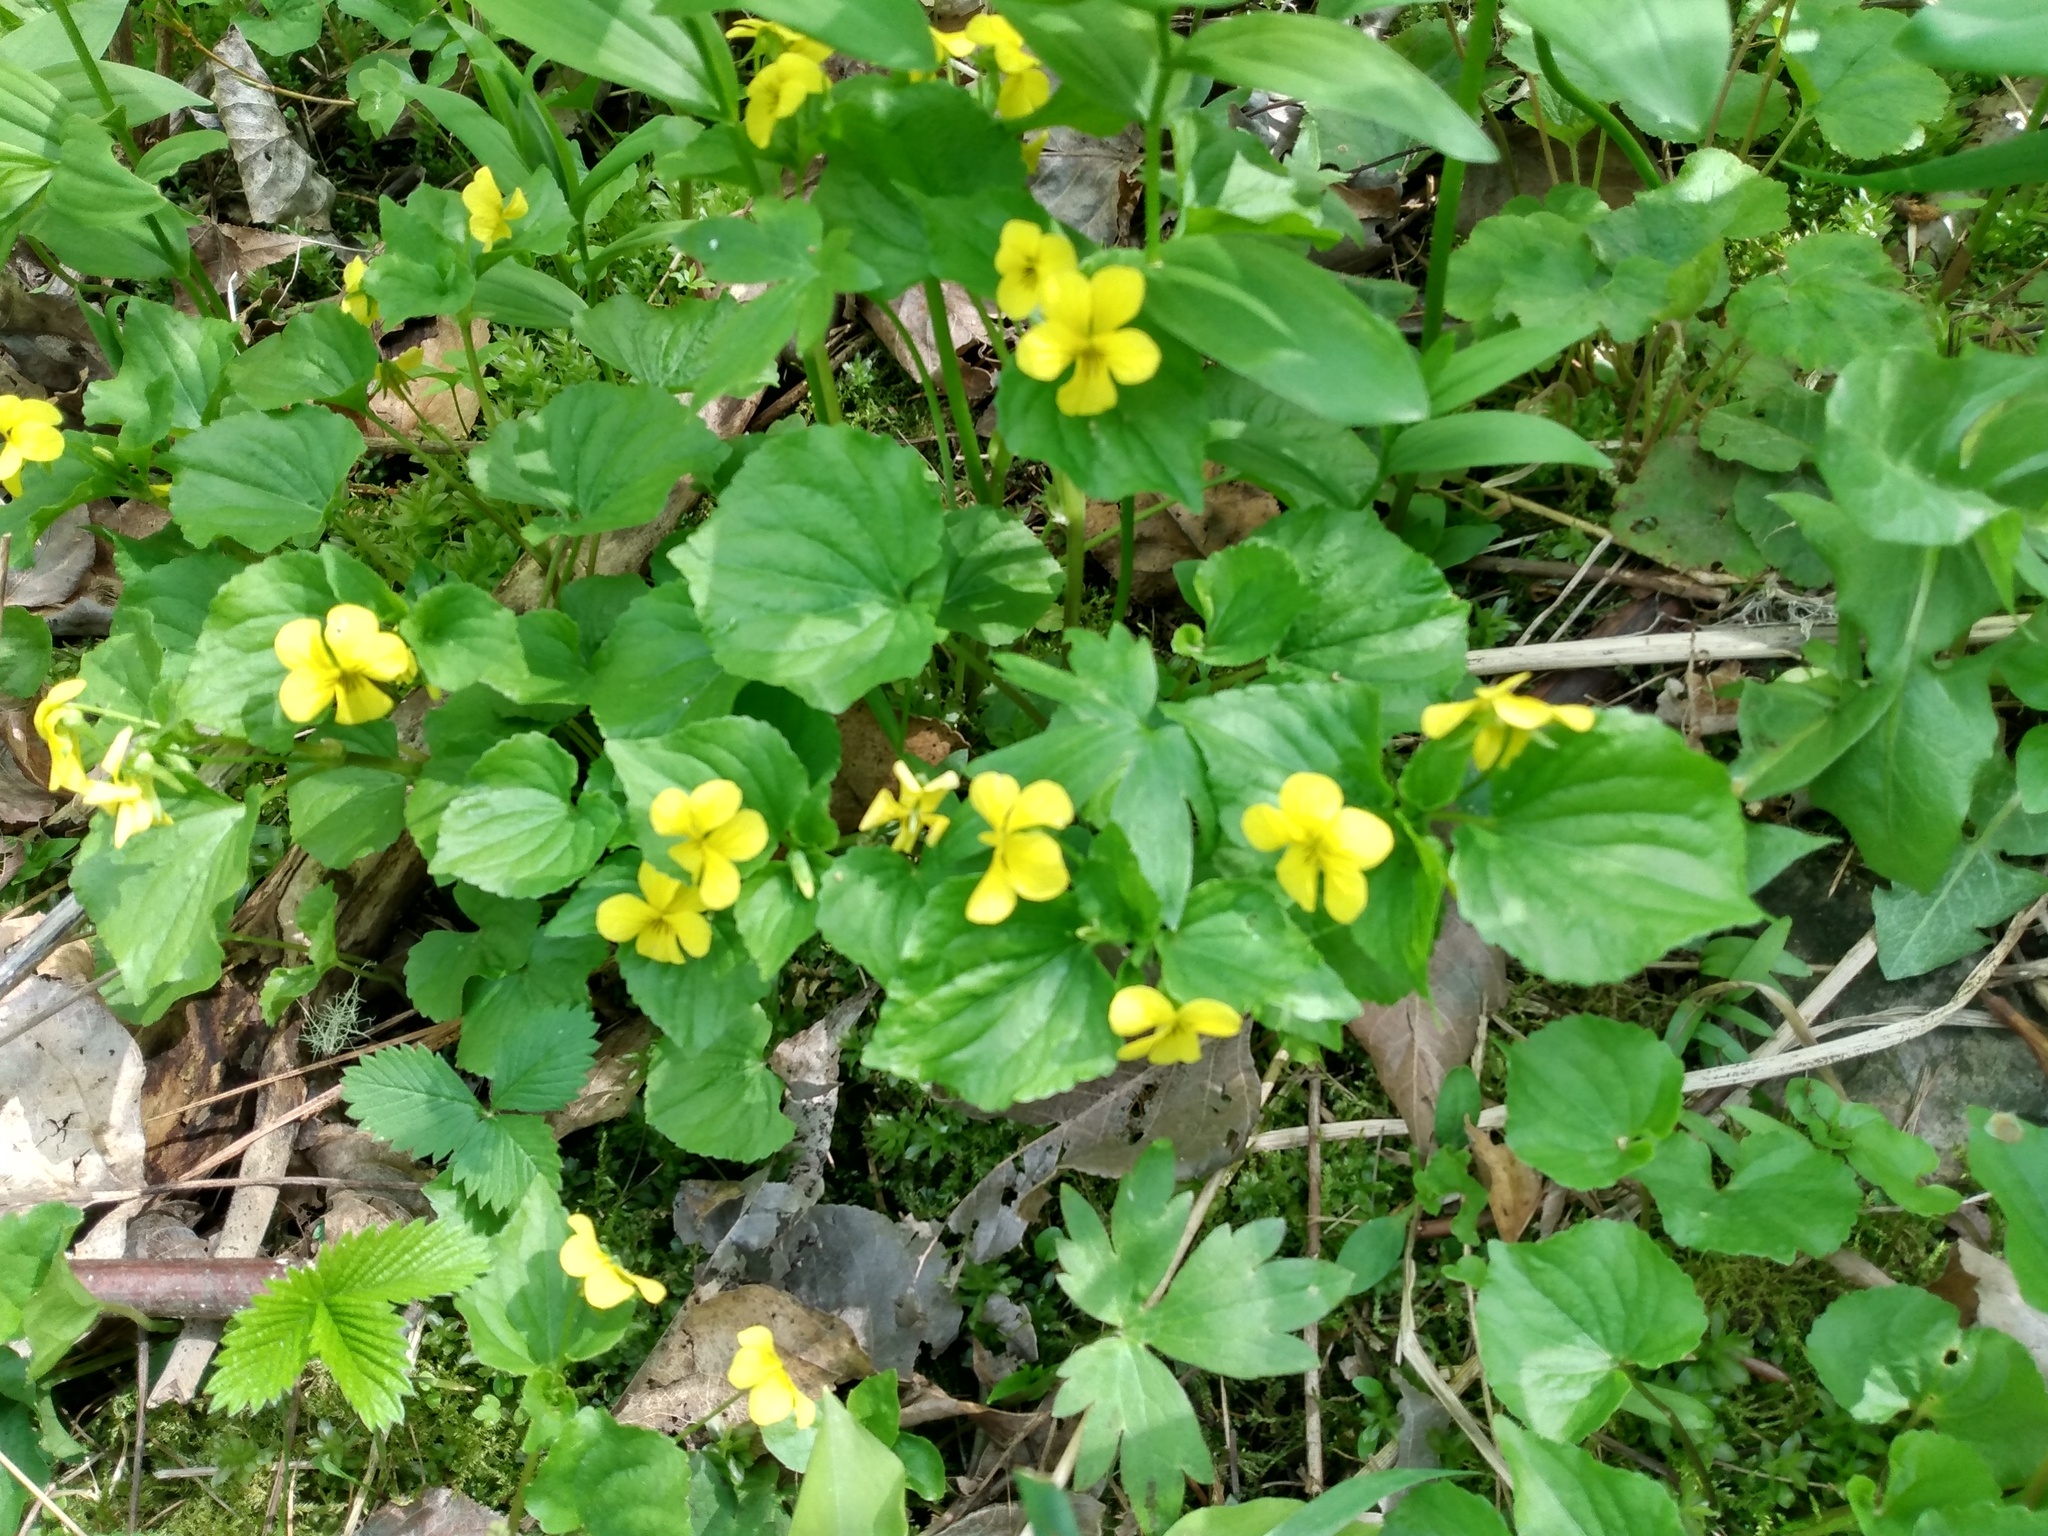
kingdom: Plantae
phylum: Tracheophyta
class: Magnoliopsida
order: Malpighiales
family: Violaceae
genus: Viola
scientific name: Viola glabella
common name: Stream violet
